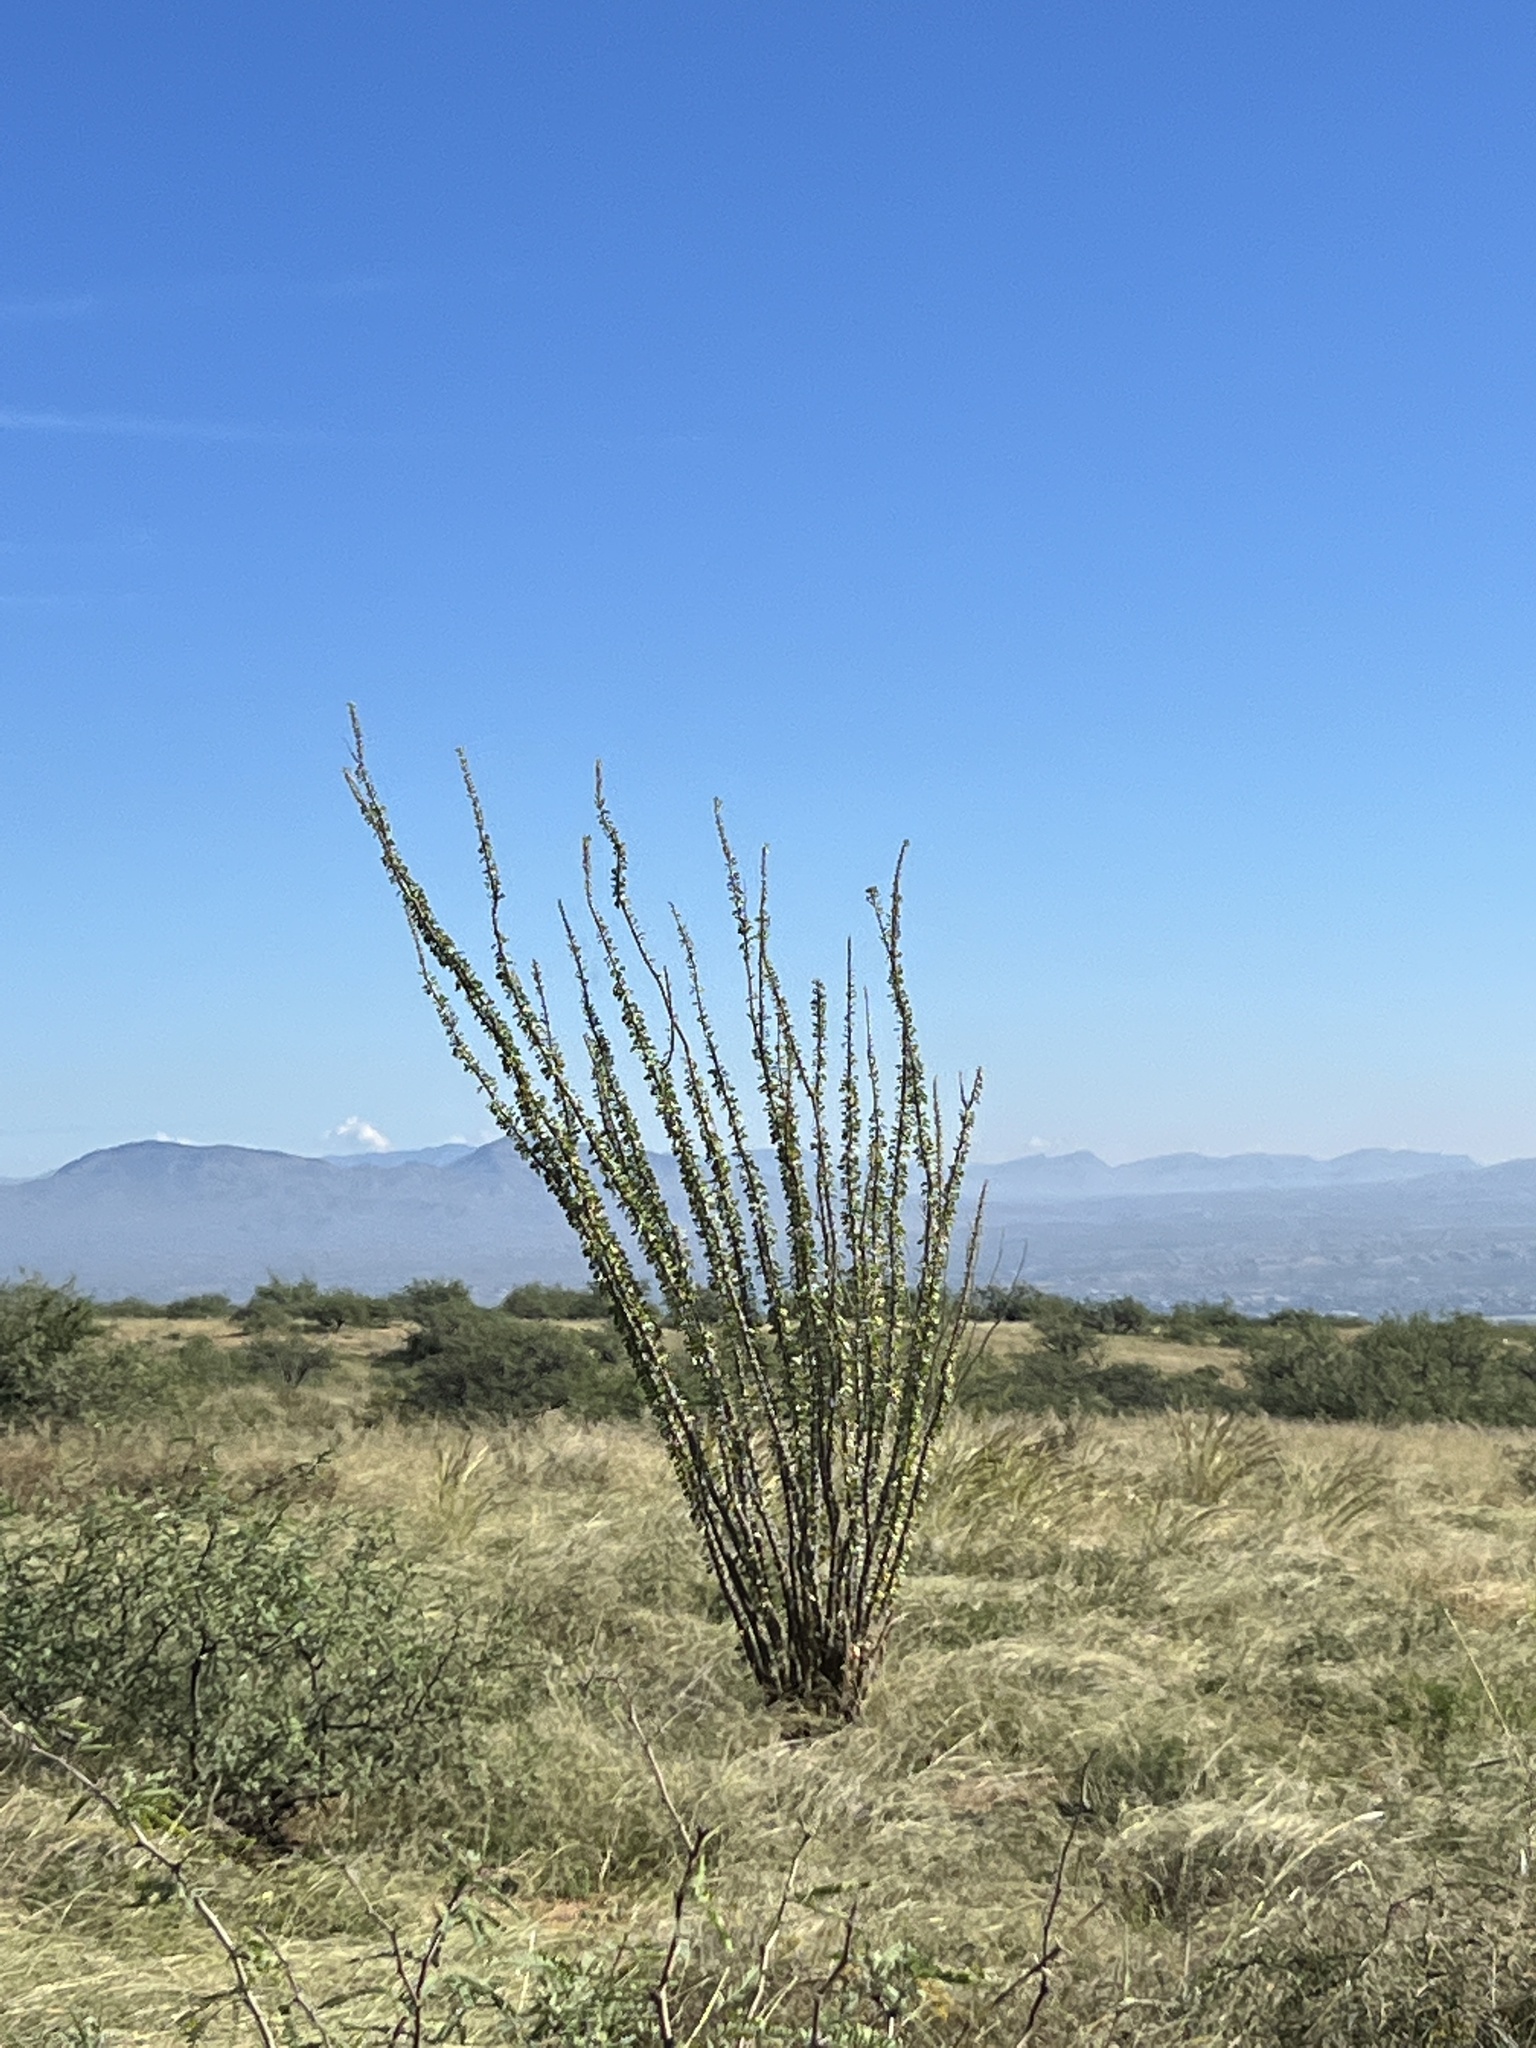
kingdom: Plantae
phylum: Tracheophyta
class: Magnoliopsida
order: Ericales
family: Fouquieriaceae
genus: Fouquieria
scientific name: Fouquieria splendens
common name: Vine-cactus
